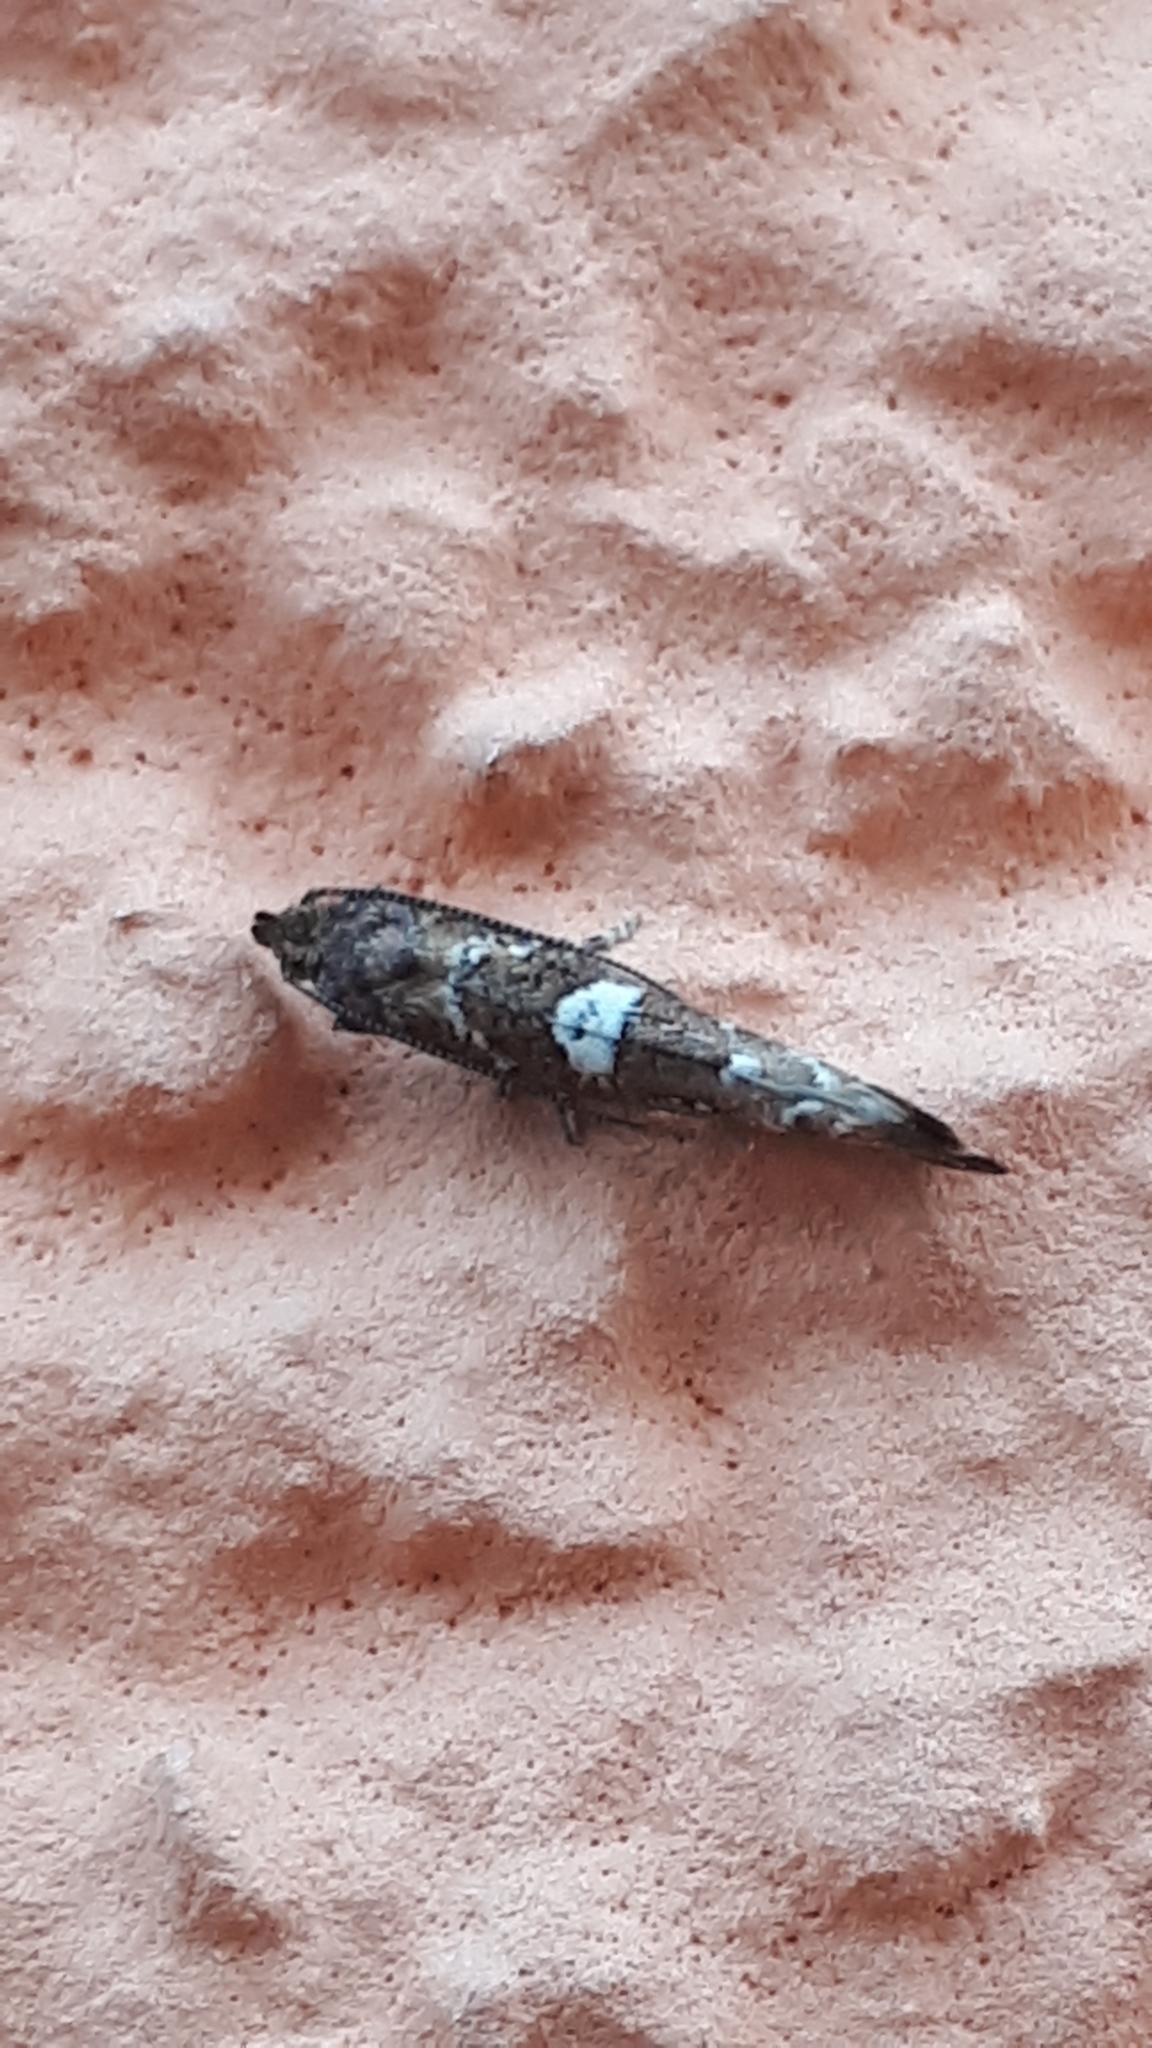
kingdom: Animalia
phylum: Arthropoda
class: Insecta
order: Lepidoptera
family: Glyphipterigidae
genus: Acrolepia
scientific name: Acrolepia assectella
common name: Onion leaf miner
